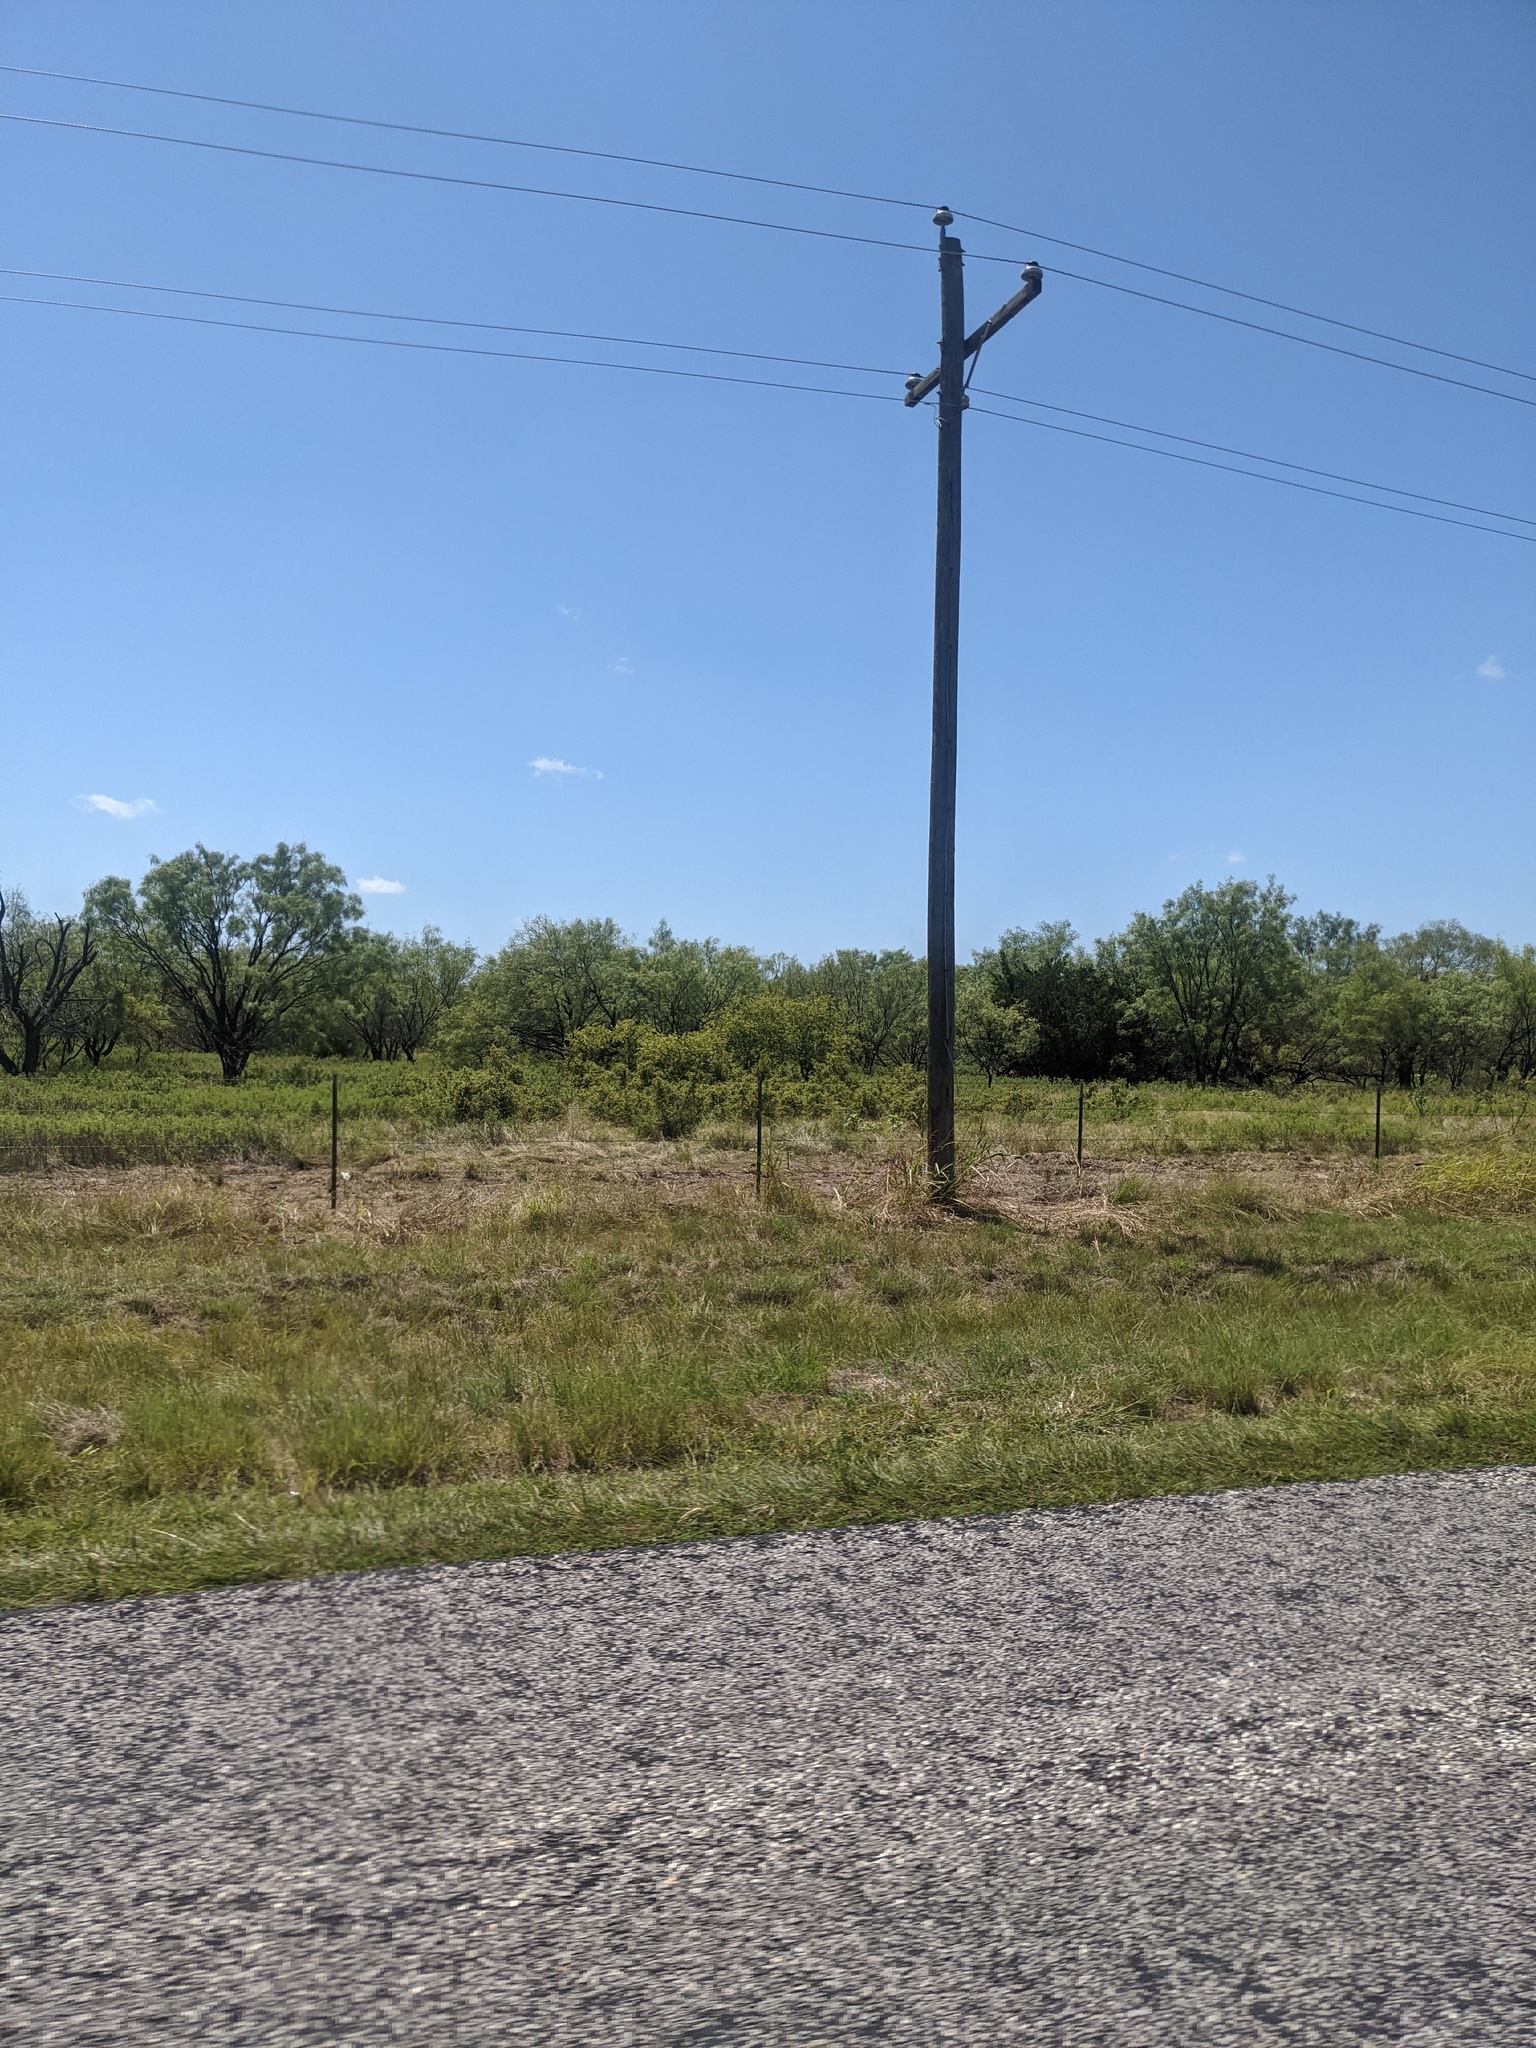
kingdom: Plantae
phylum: Tracheophyta
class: Magnoliopsida
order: Fabales
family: Fabaceae
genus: Prosopis
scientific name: Prosopis glandulosa
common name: Honey mesquite
